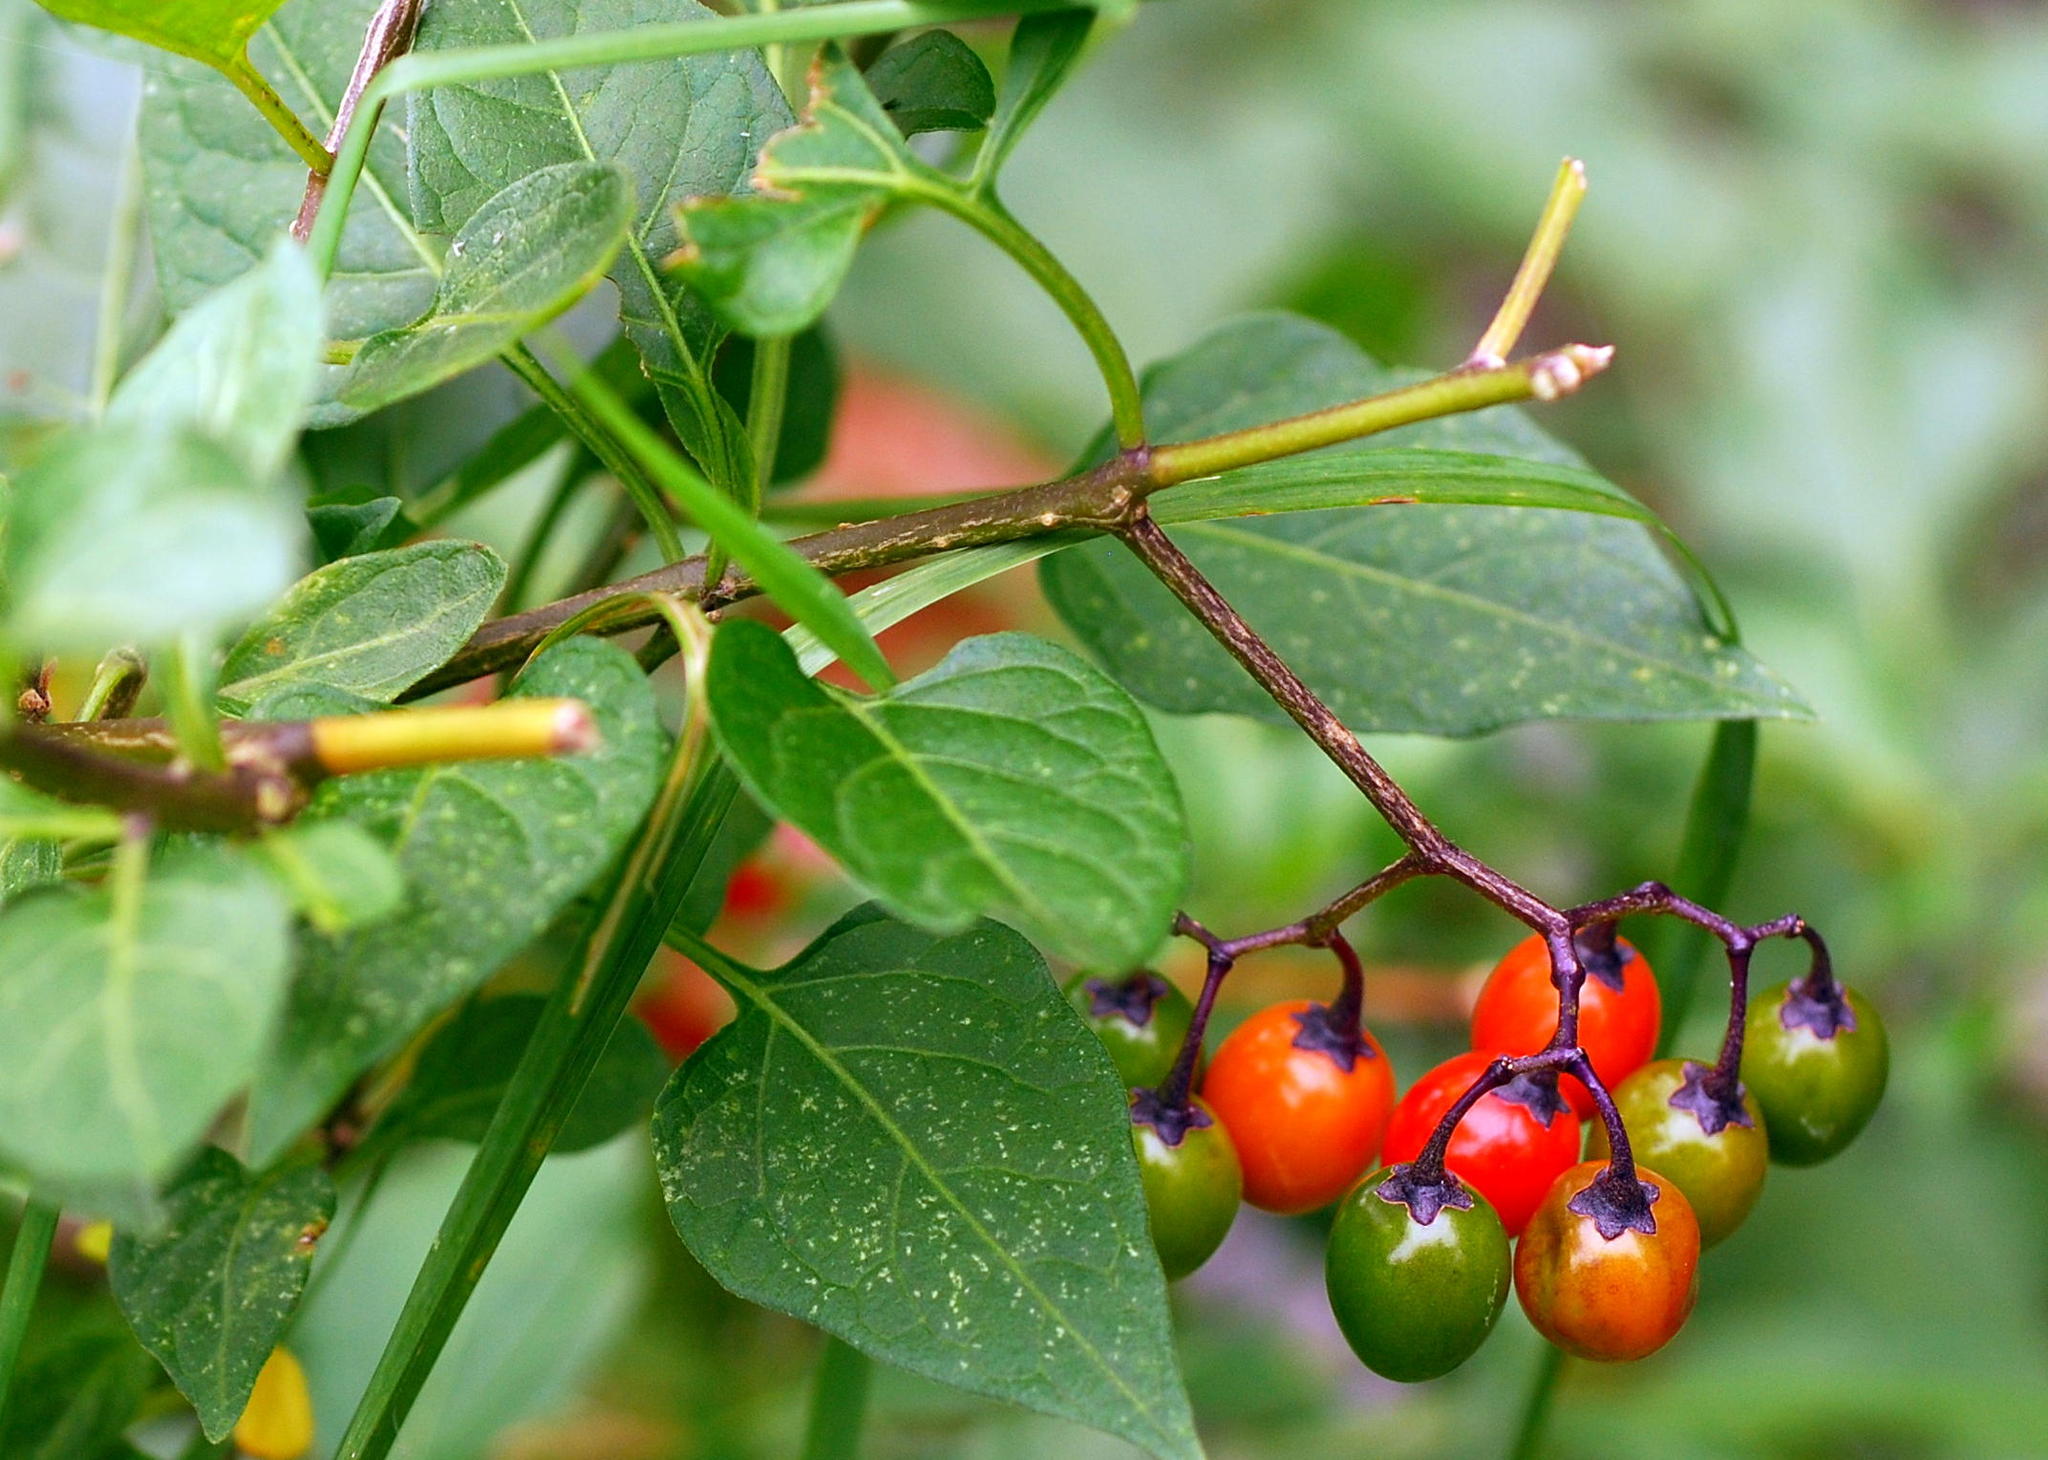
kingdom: Plantae
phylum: Tracheophyta
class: Magnoliopsida
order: Solanales
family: Solanaceae
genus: Solanum
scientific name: Solanum dulcamara
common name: Climbing nightshade
